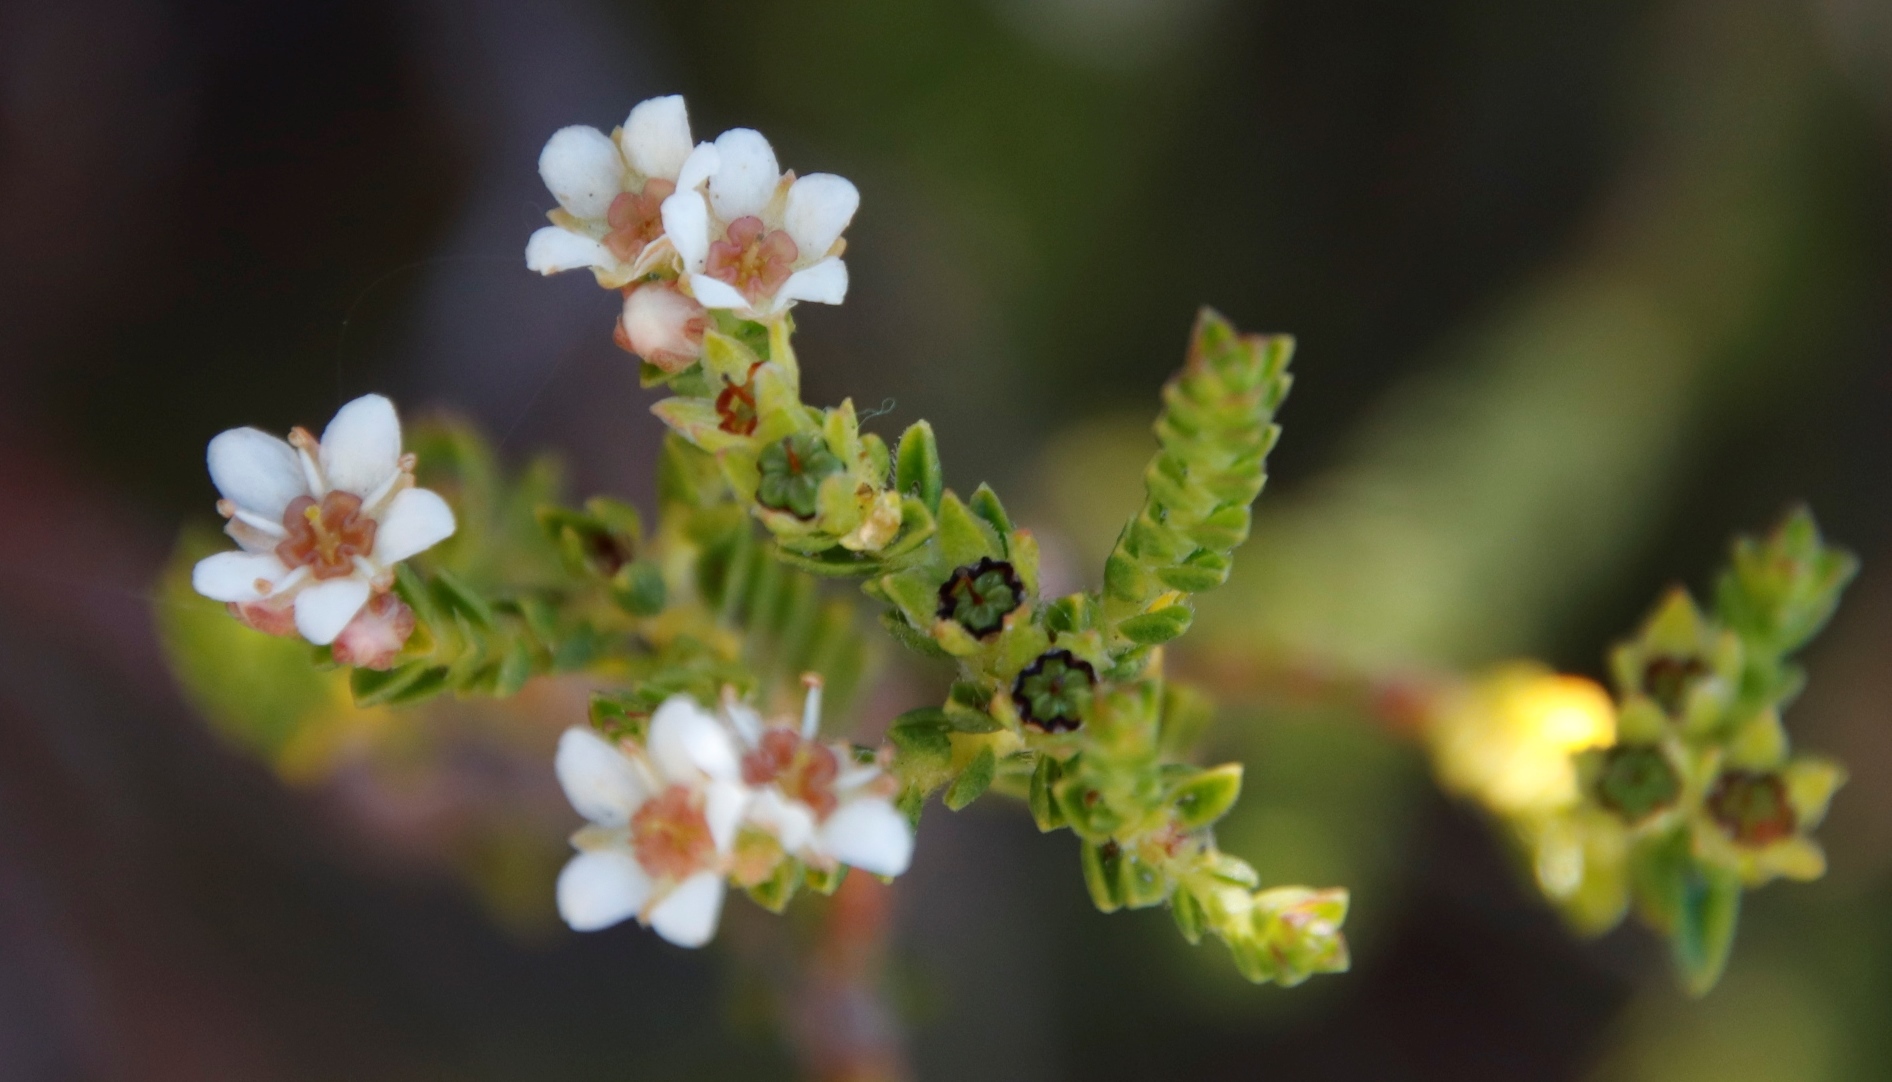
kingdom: Plantae
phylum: Tracheophyta
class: Magnoliopsida
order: Sapindales
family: Rutaceae
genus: Diosma
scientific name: Diosma oppositifolia
